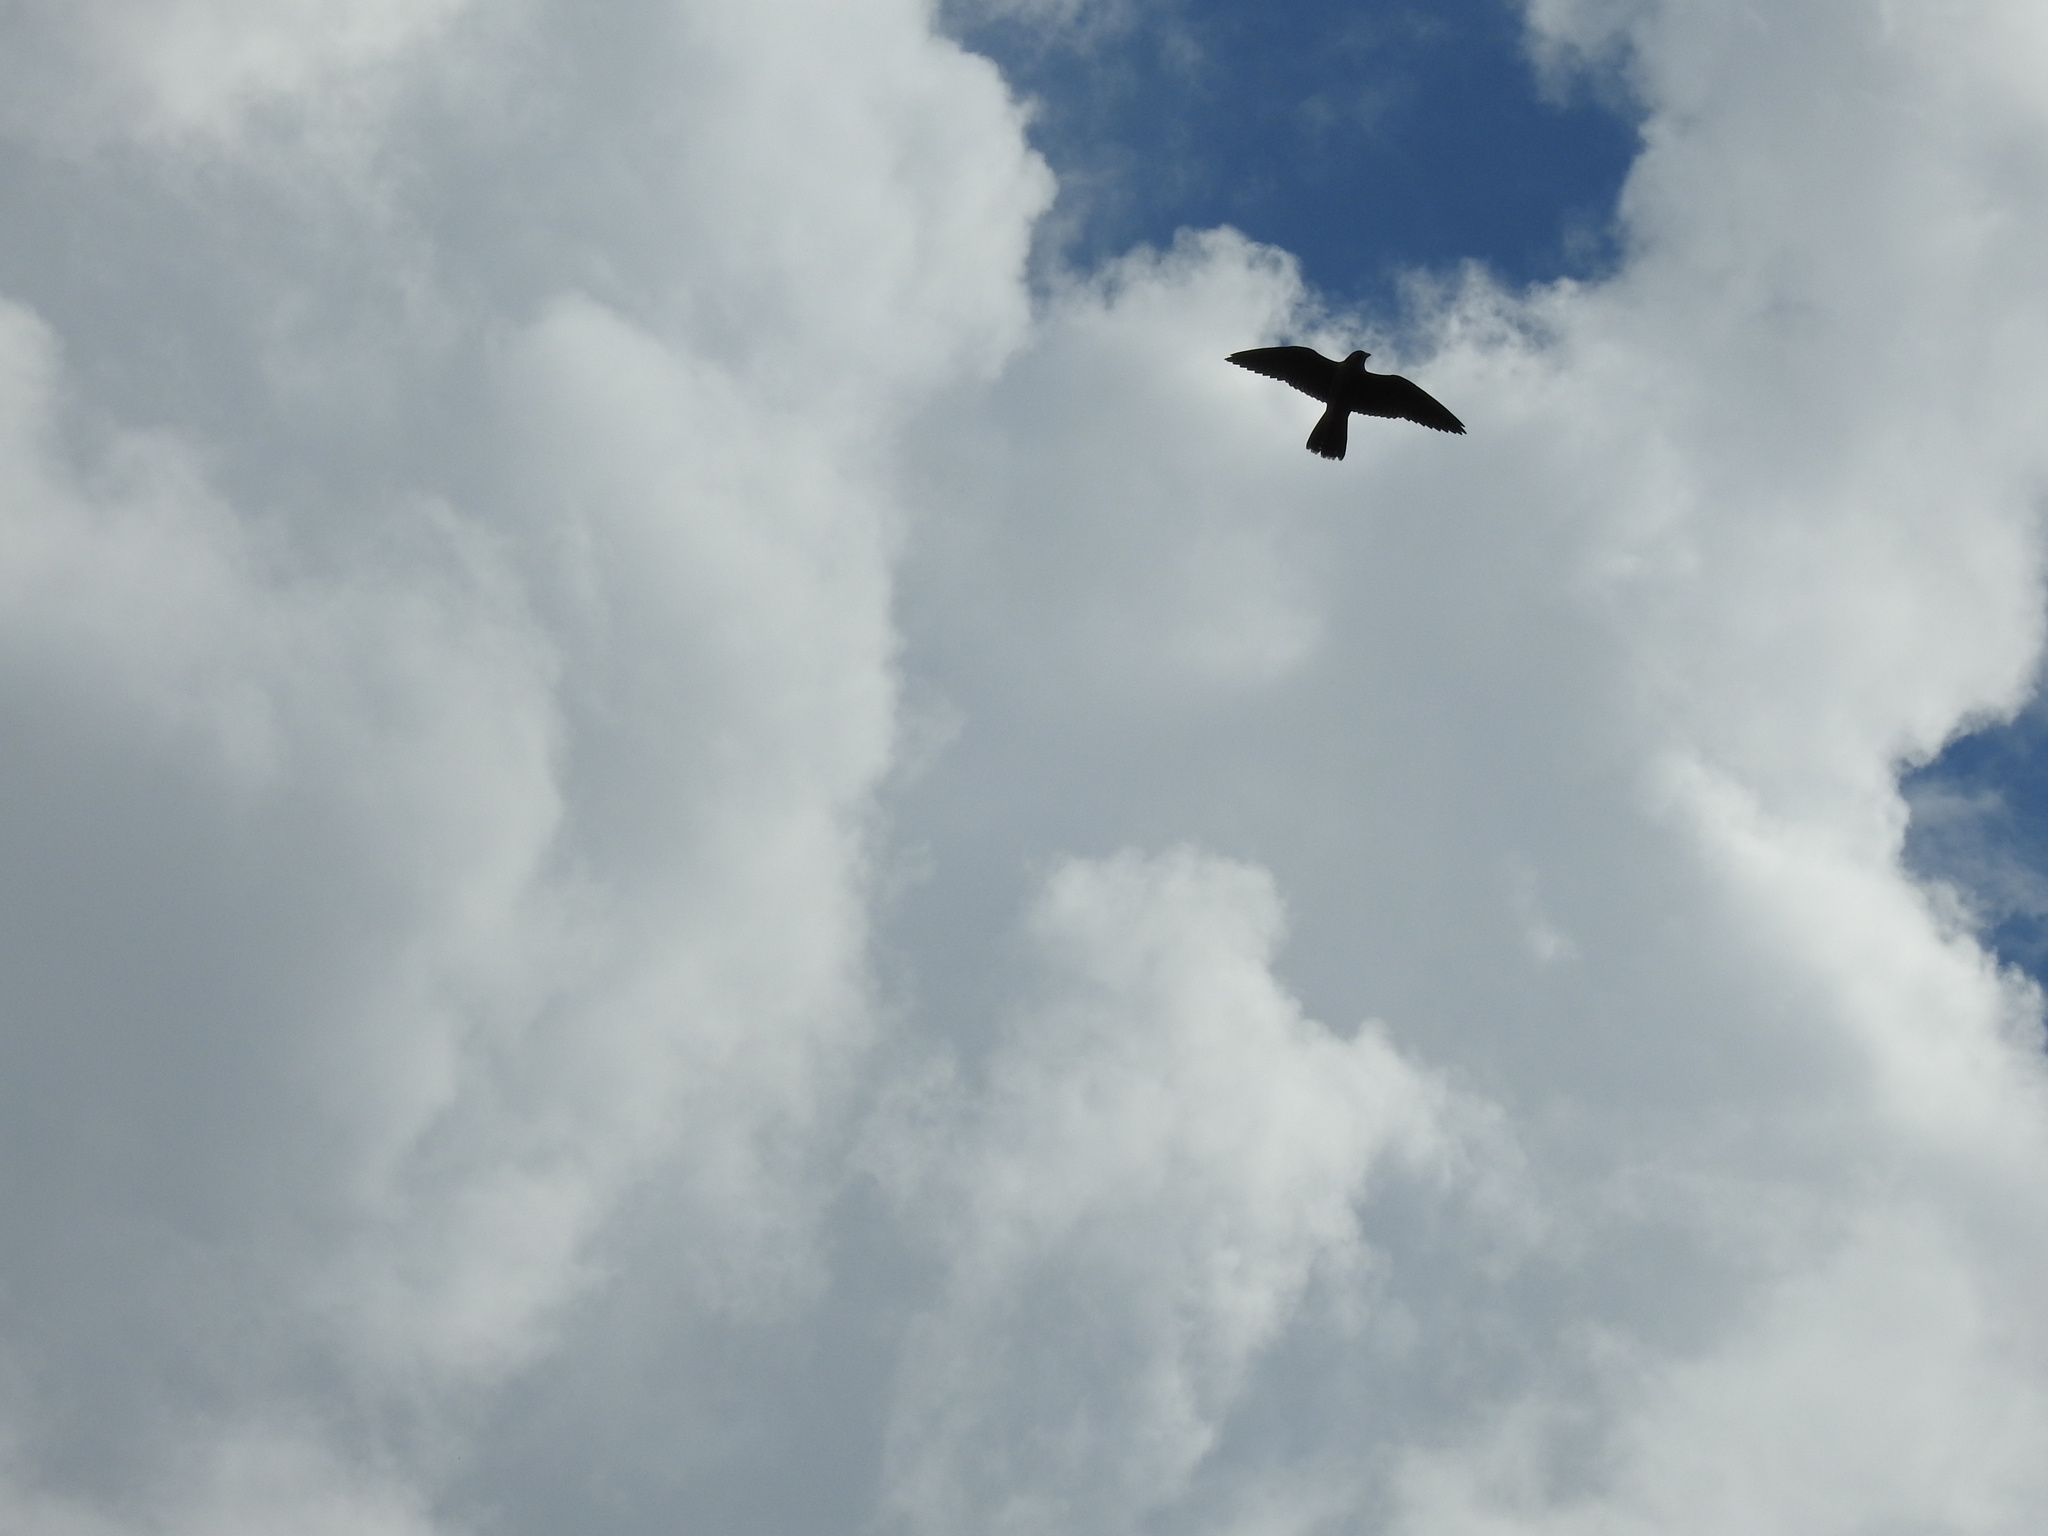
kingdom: Animalia
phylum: Chordata
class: Aves
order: Falconiformes
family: Falconidae
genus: Falco
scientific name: Falco peregrinus
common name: Peregrine falcon
